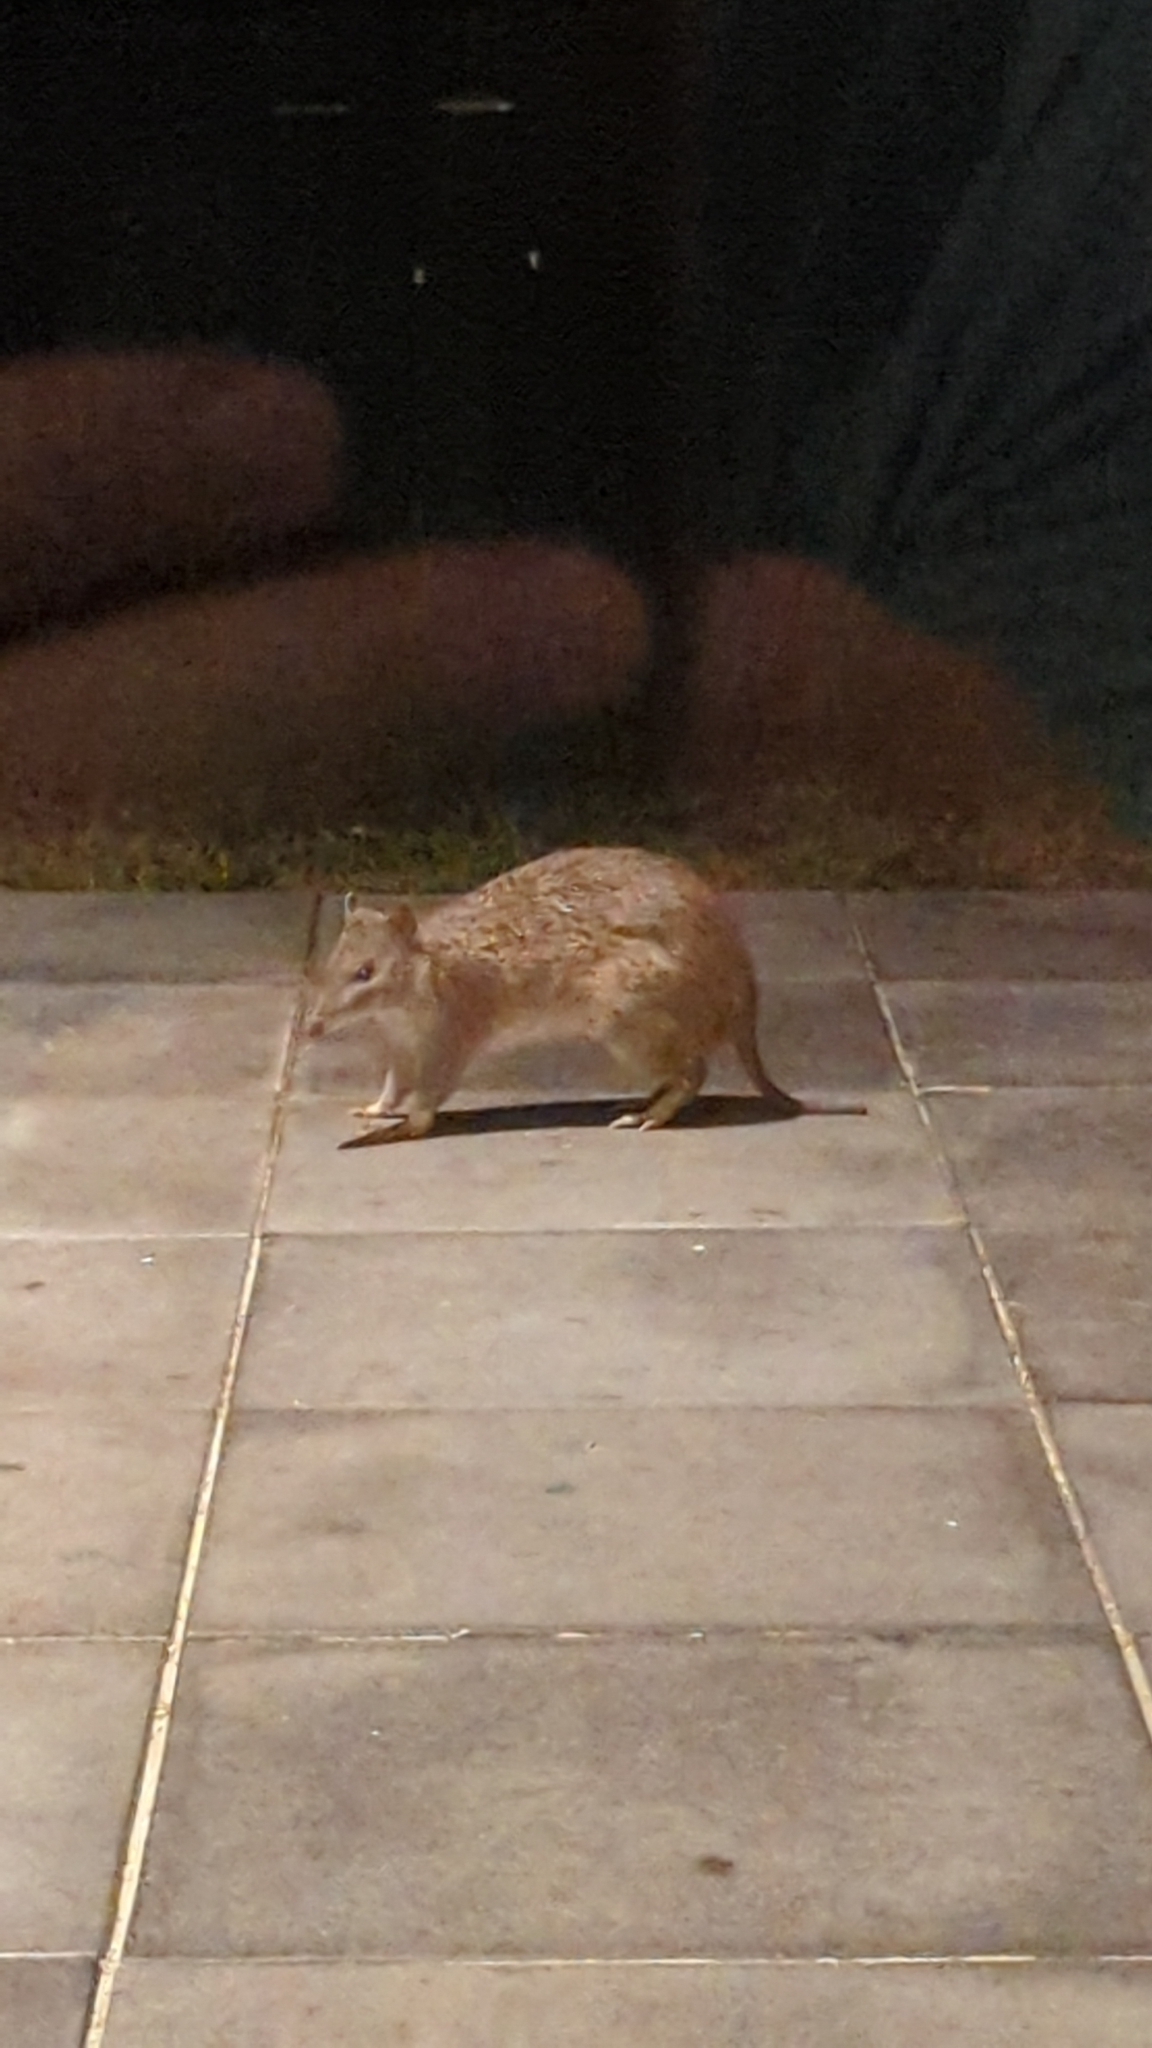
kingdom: Animalia
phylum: Chordata
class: Mammalia
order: Peramelemorphia
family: Peramelidae
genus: Isoodon
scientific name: Isoodon macrourus
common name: Northern brown bandicoot
